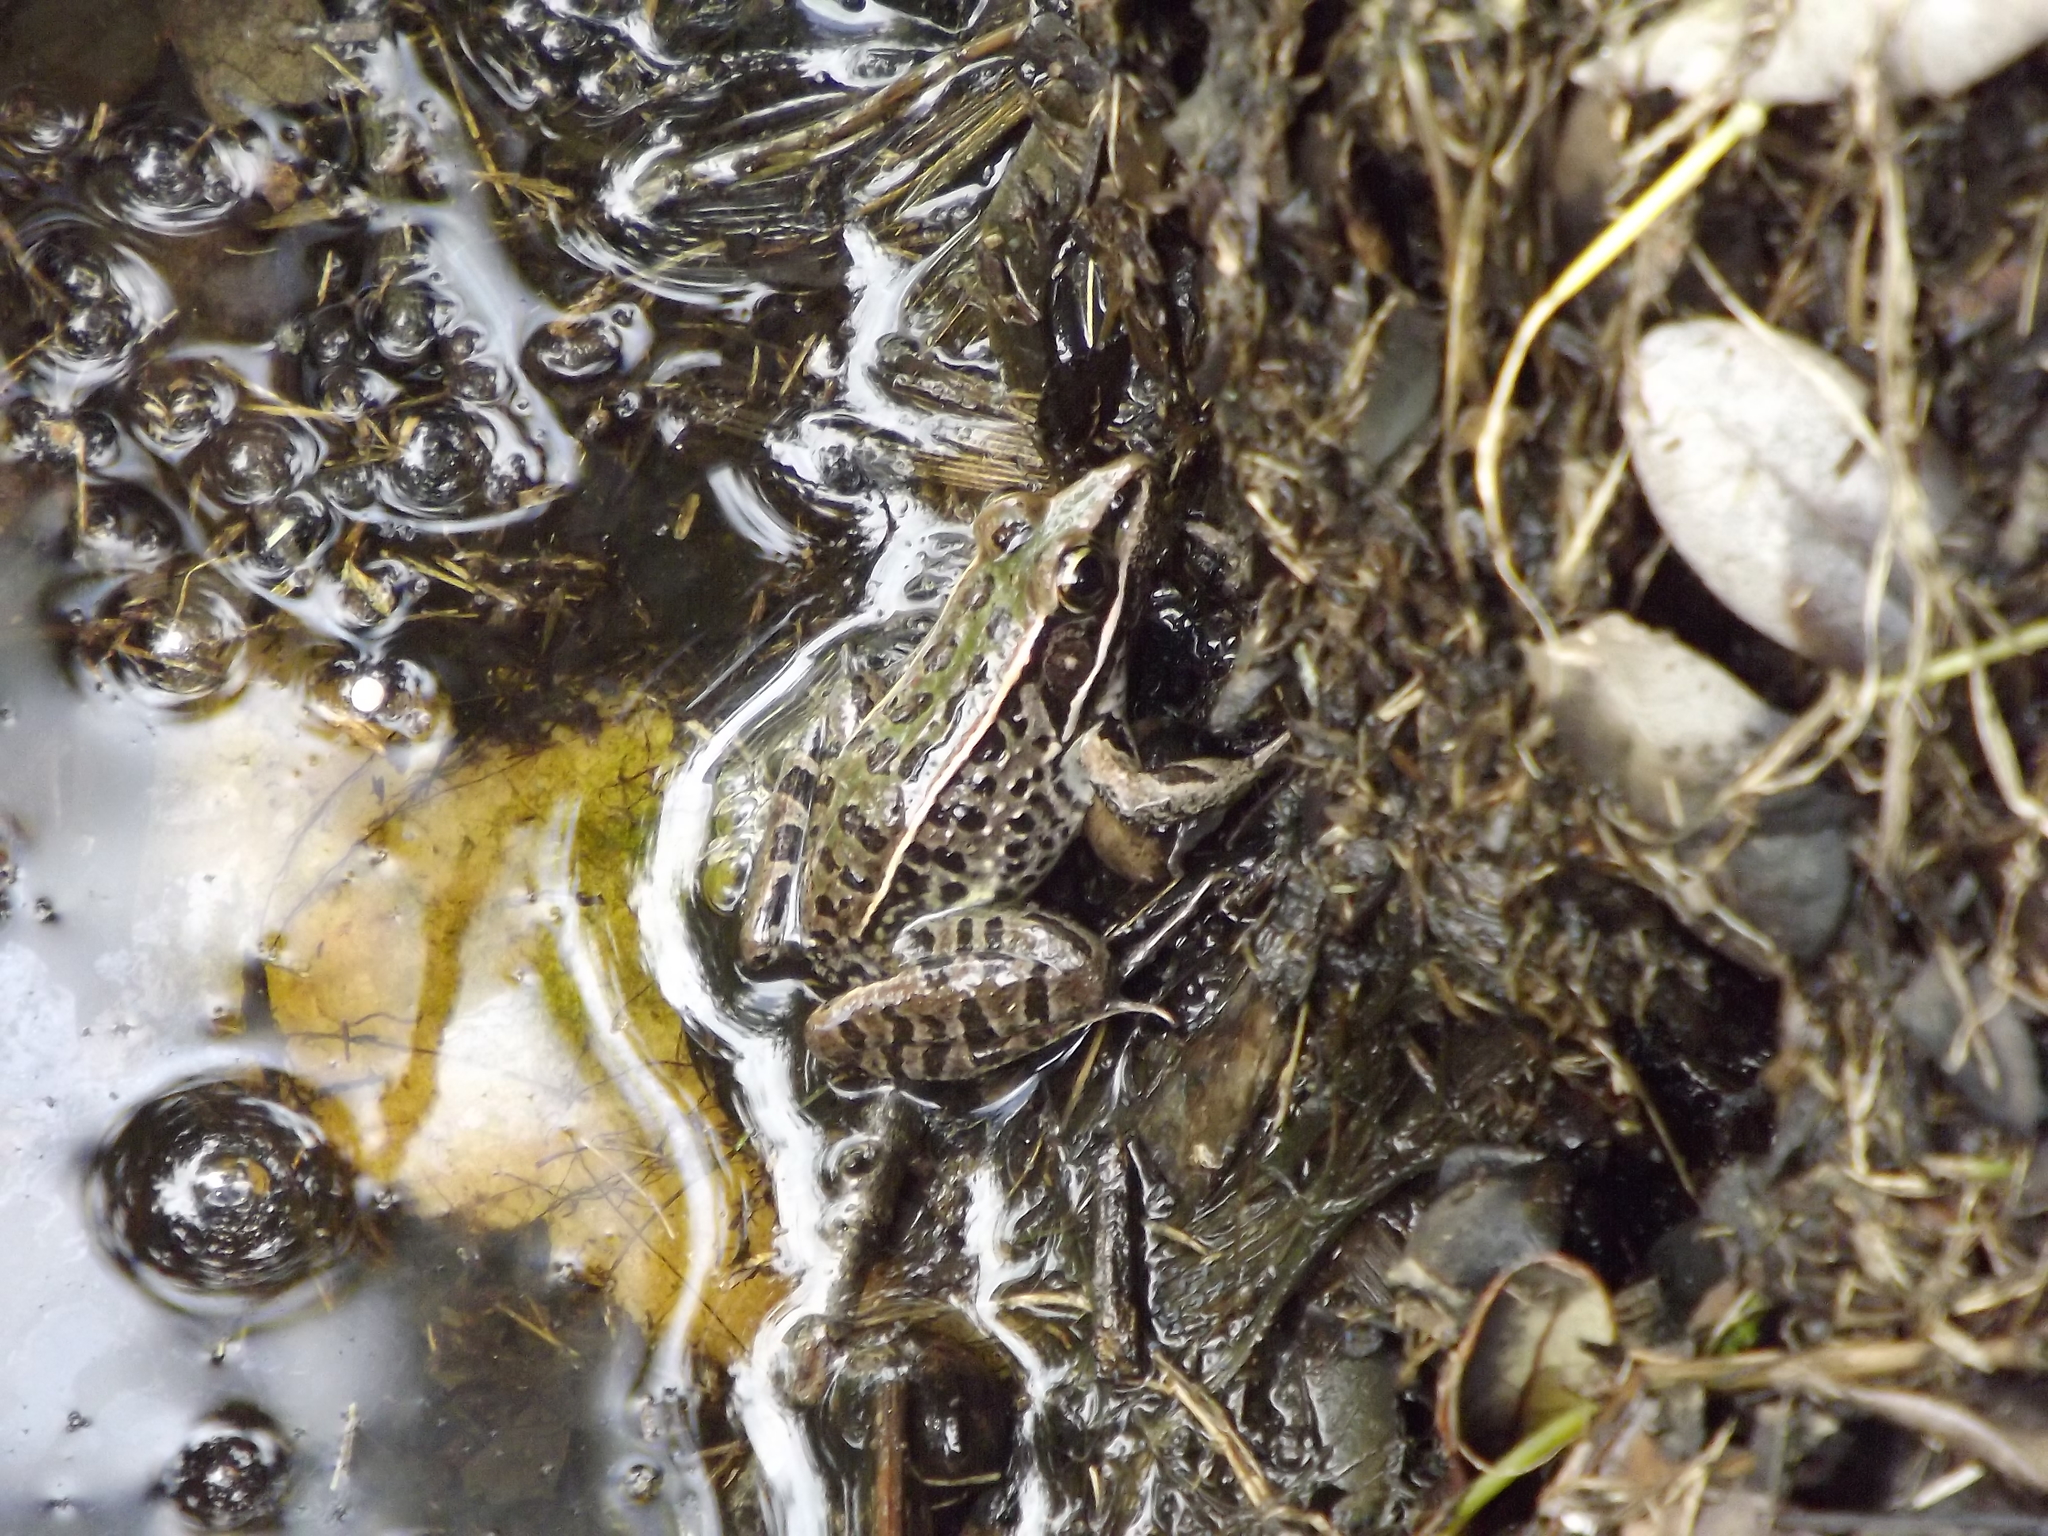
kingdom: Animalia
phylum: Chordata
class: Amphibia
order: Anura
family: Ranidae
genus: Lithobates
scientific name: Lithobates sphenocephalus
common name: Southern leopard frog
